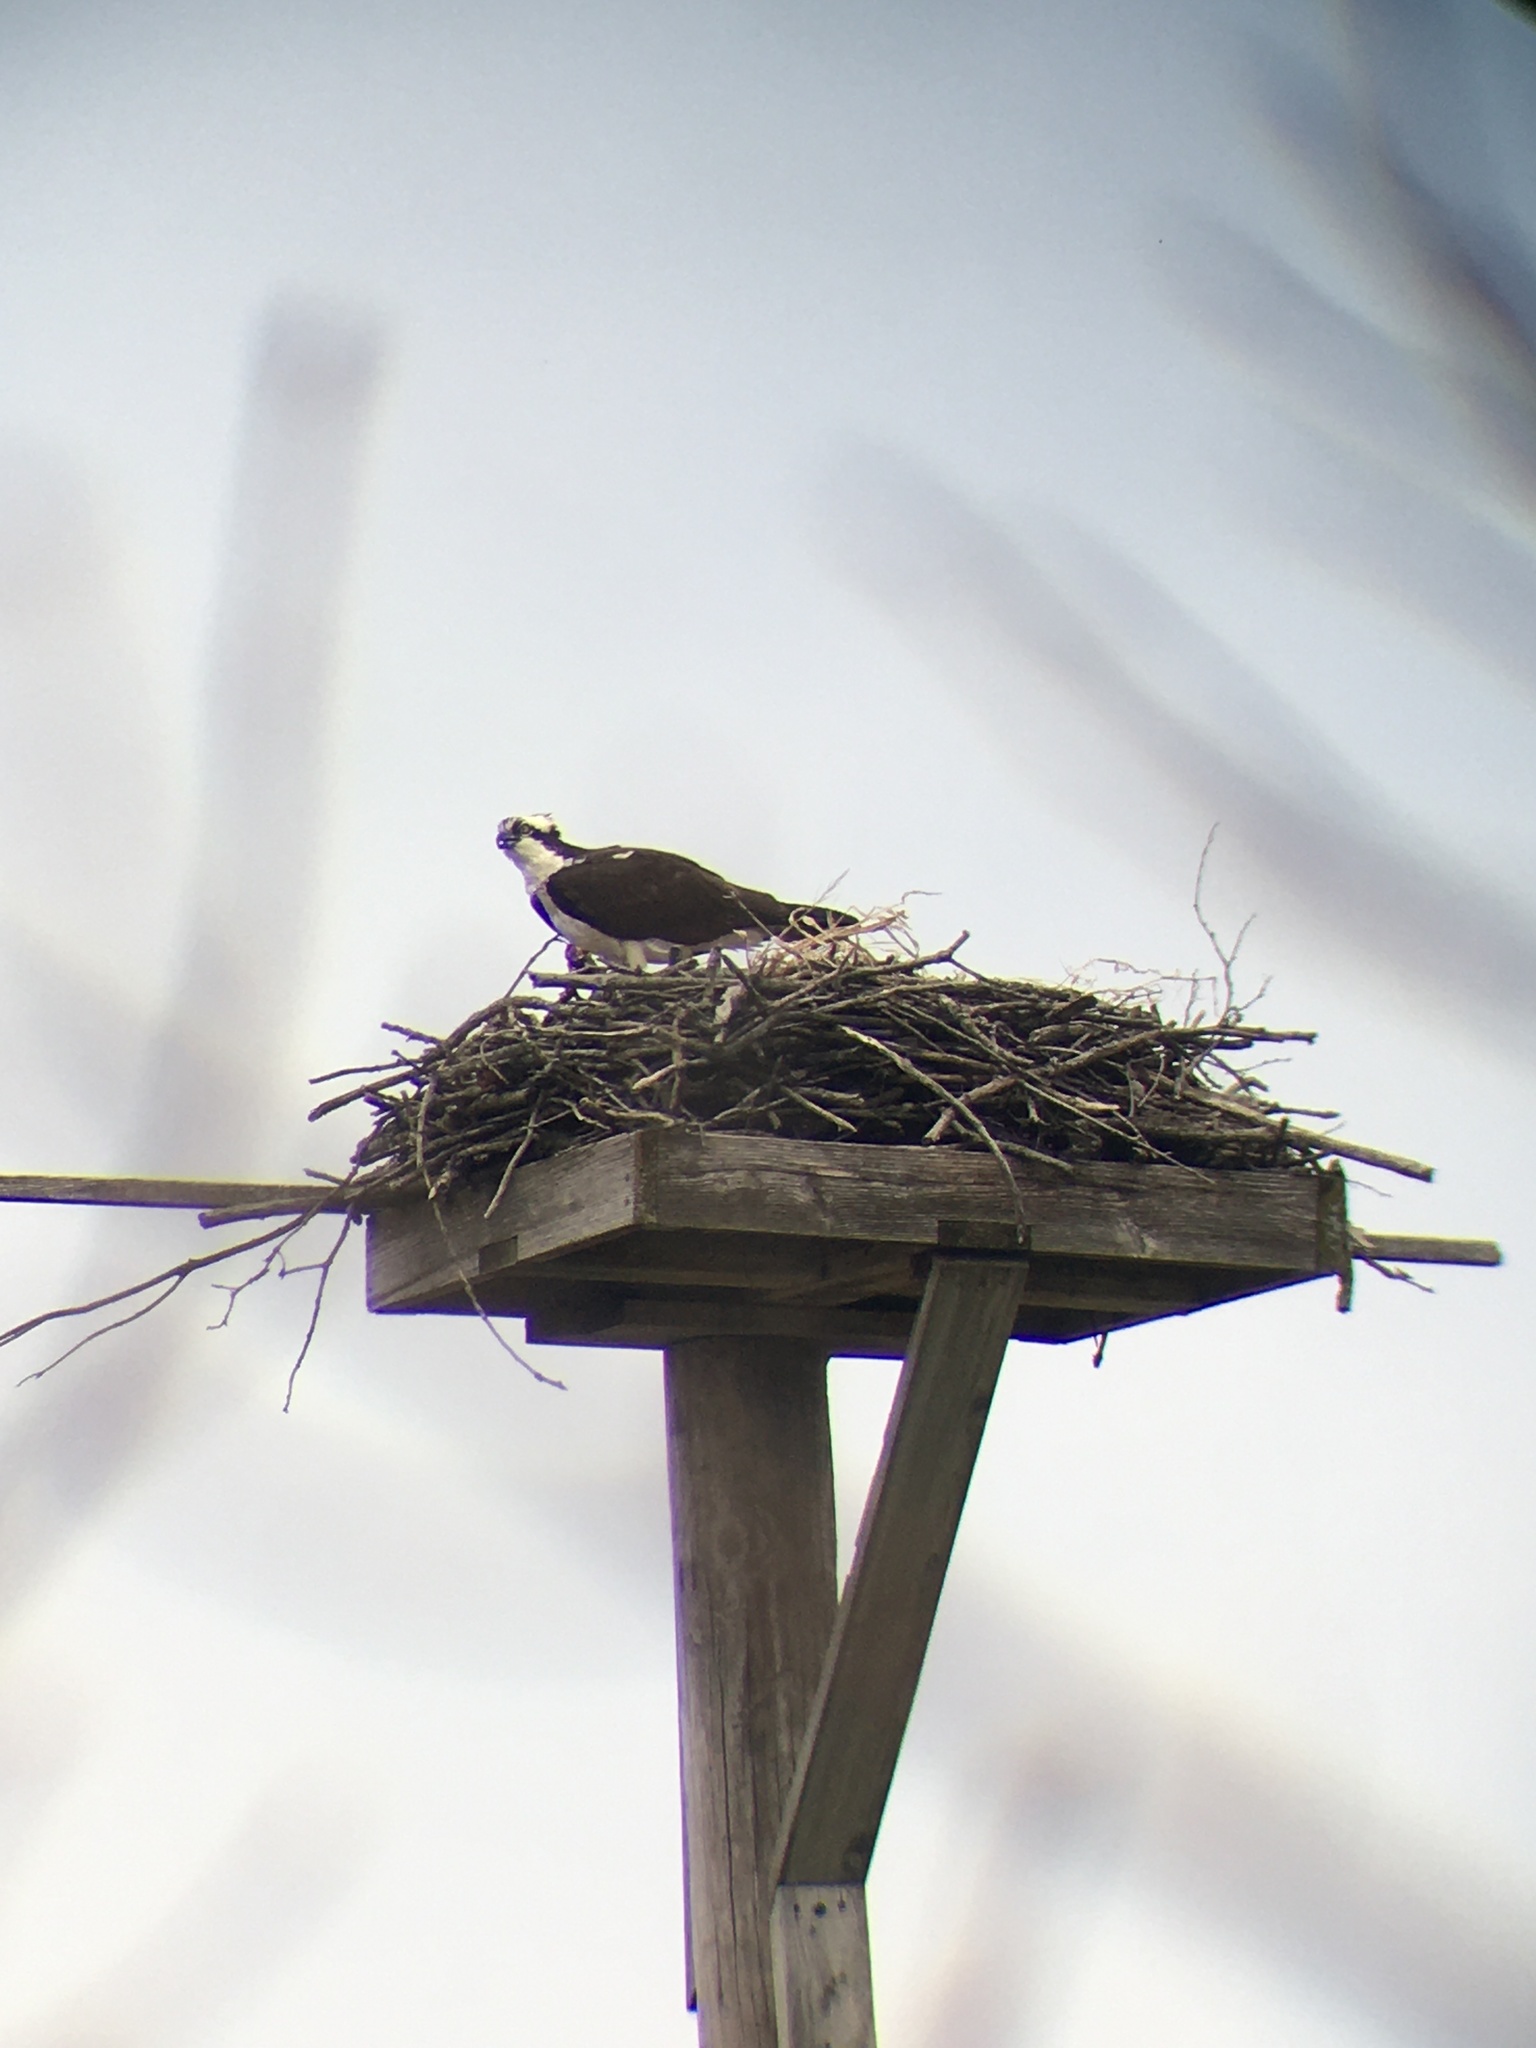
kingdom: Animalia
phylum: Chordata
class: Aves
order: Accipitriformes
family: Pandionidae
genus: Pandion
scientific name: Pandion haliaetus
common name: Osprey
